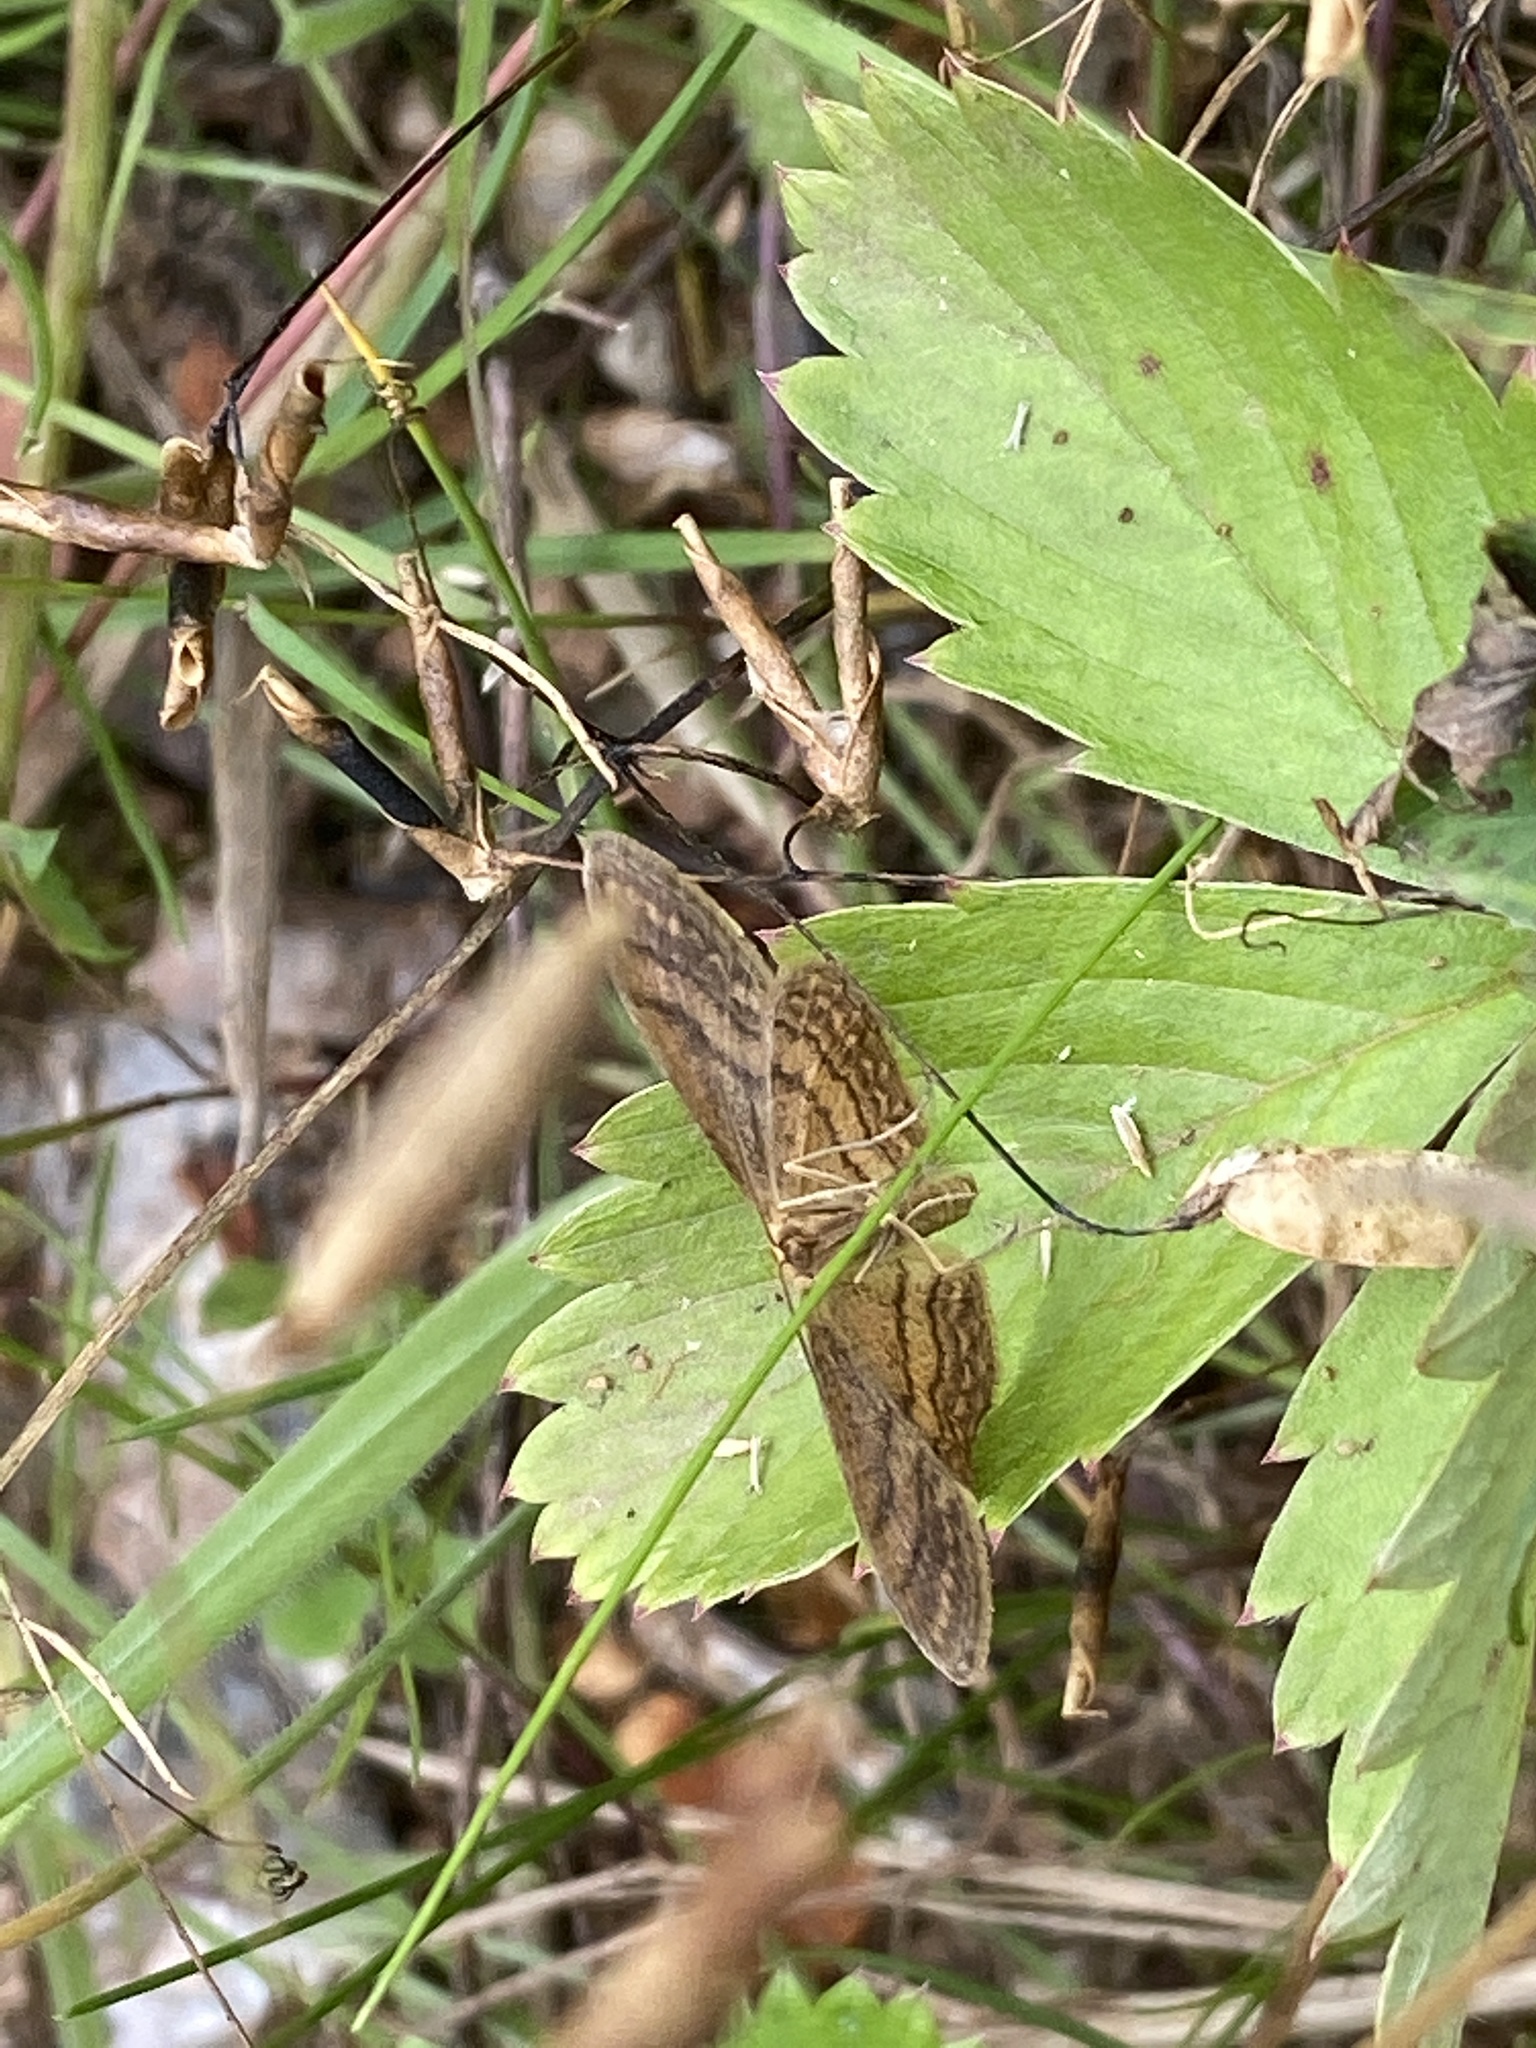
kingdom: Animalia
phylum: Arthropoda
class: Insecta
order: Lepidoptera
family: Geometridae
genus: Idaea
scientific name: Idaea rufaria
